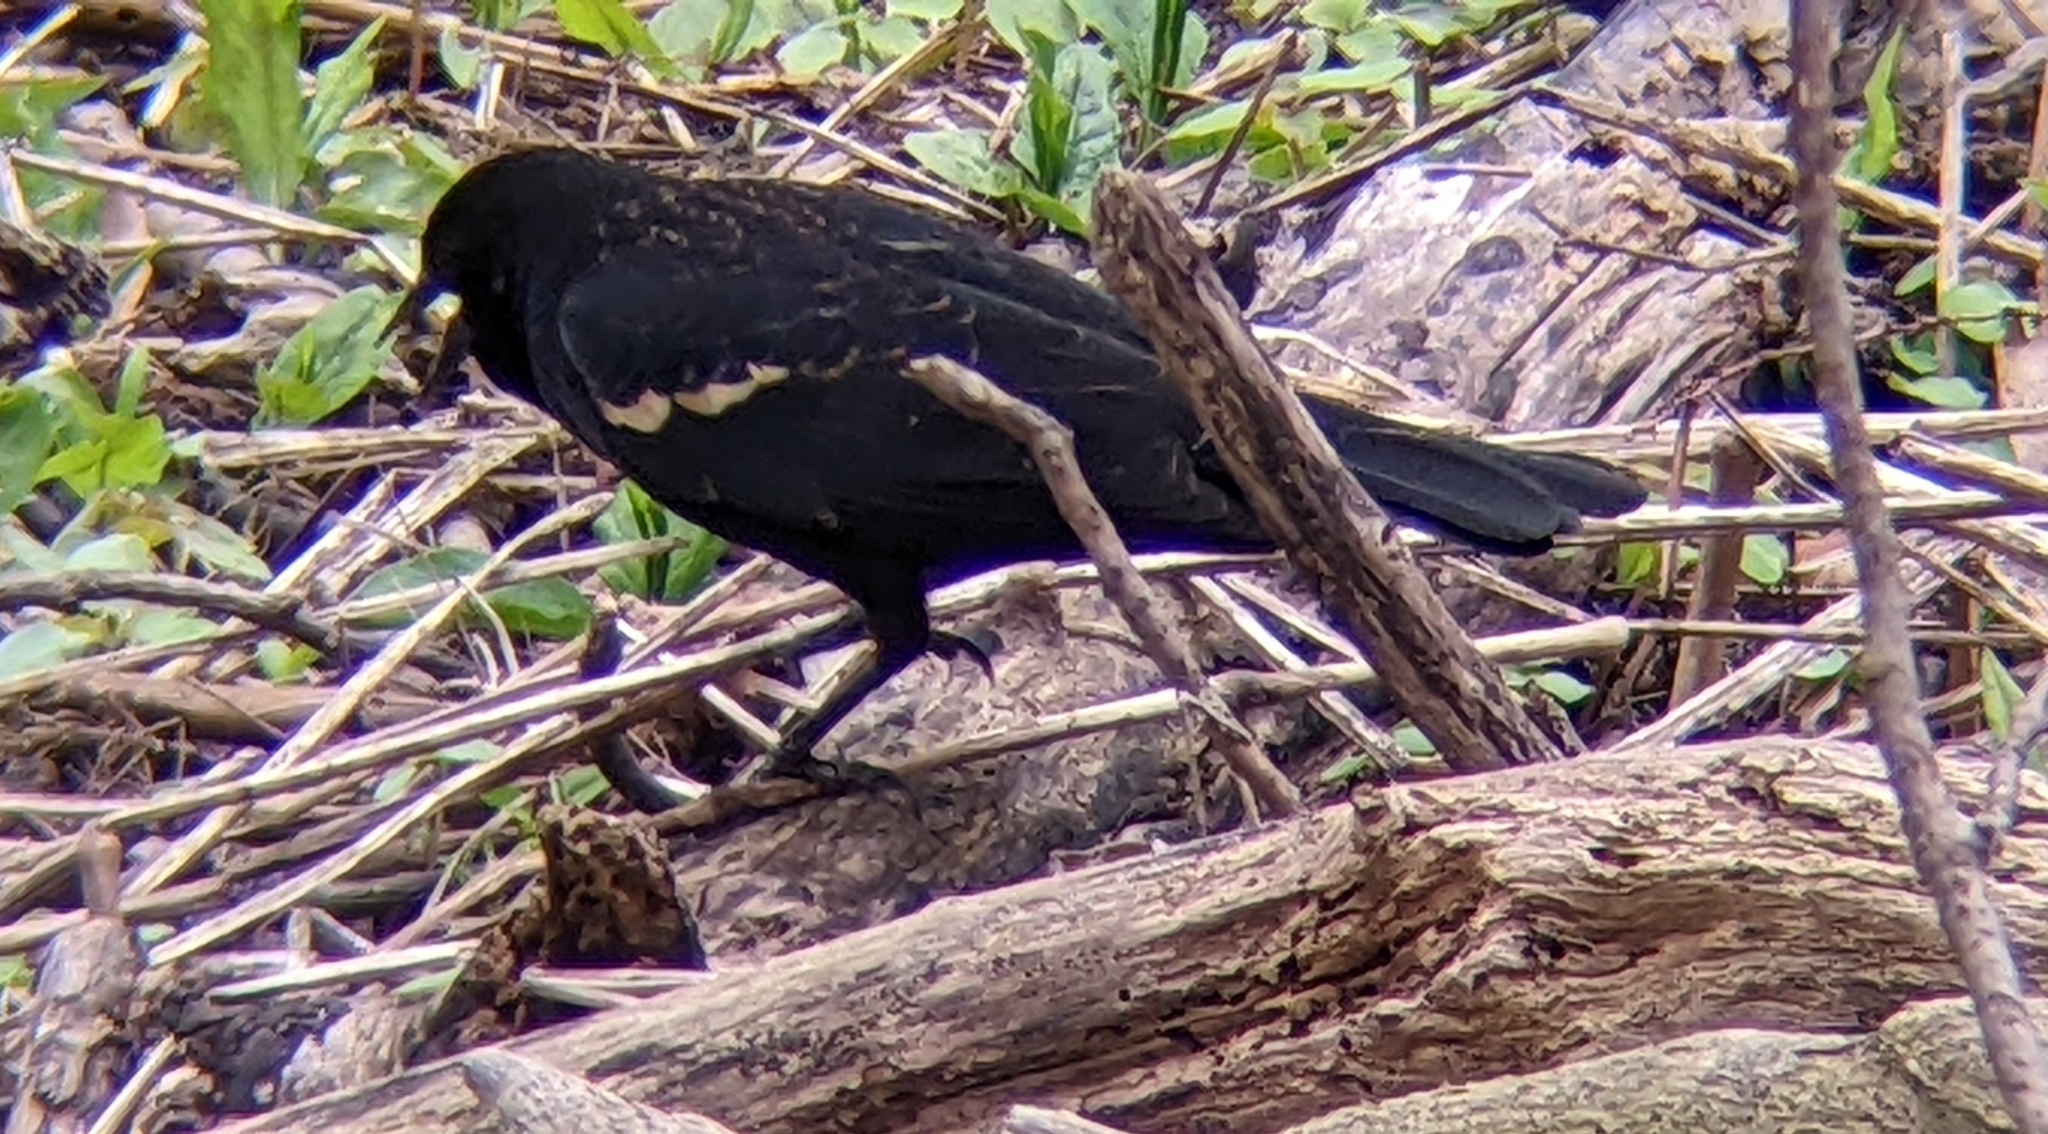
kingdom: Animalia
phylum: Chordata
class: Aves
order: Passeriformes
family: Icteridae
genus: Agelaius
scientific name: Agelaius phoeniceus
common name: Red-winged blackbird
